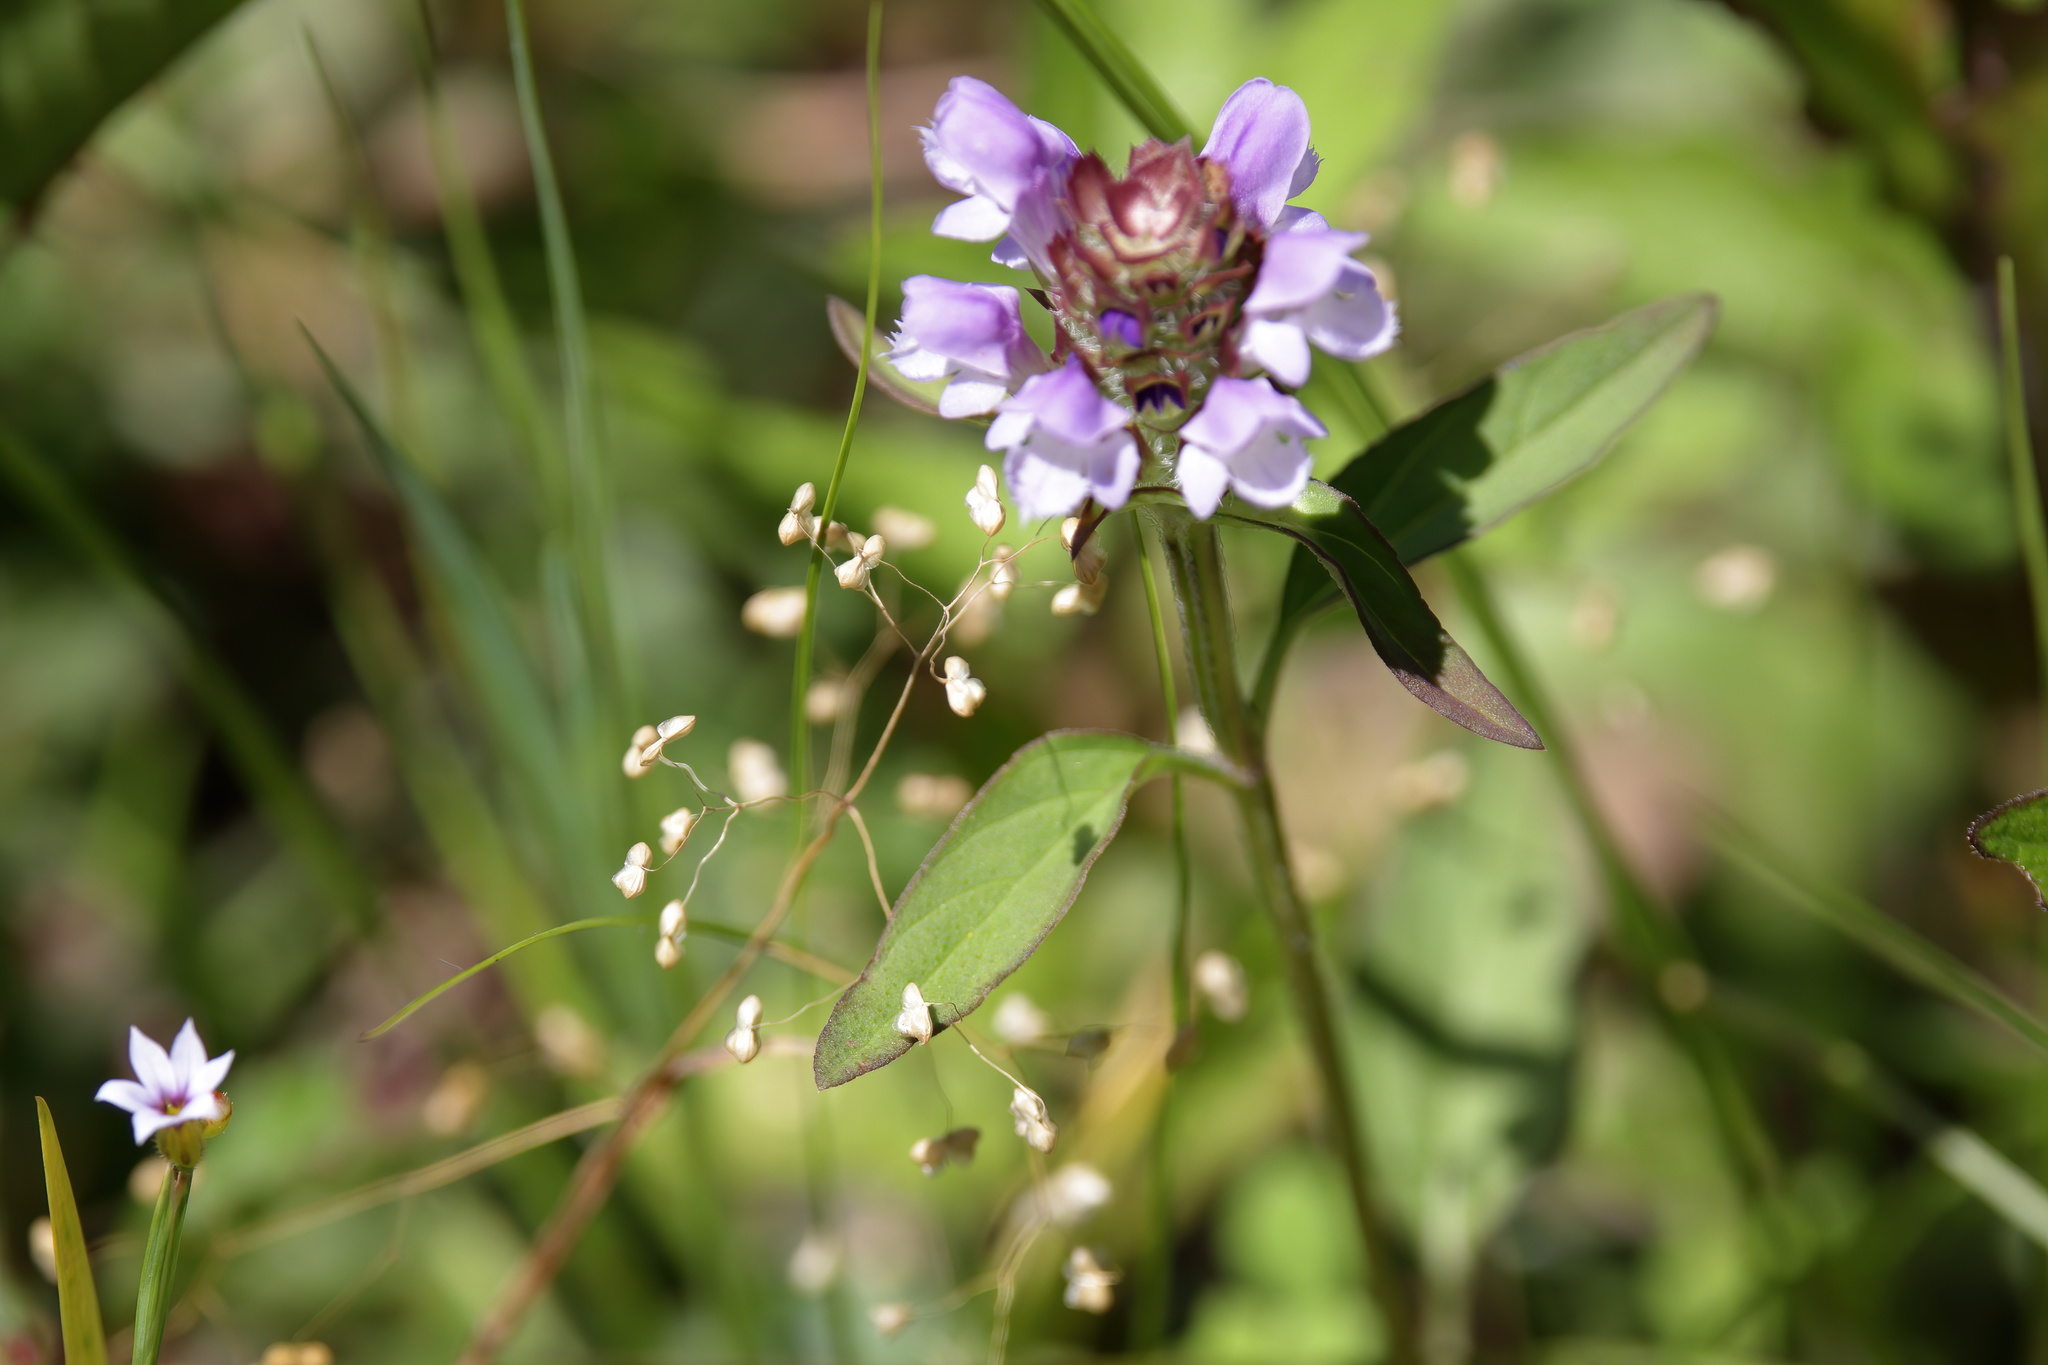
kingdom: Plantae
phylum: Tracheophyta
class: Magnoliopsida
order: Lamiales
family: Lamiaceae
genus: Prunella
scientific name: Prunella vulgaris
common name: Heal-all
